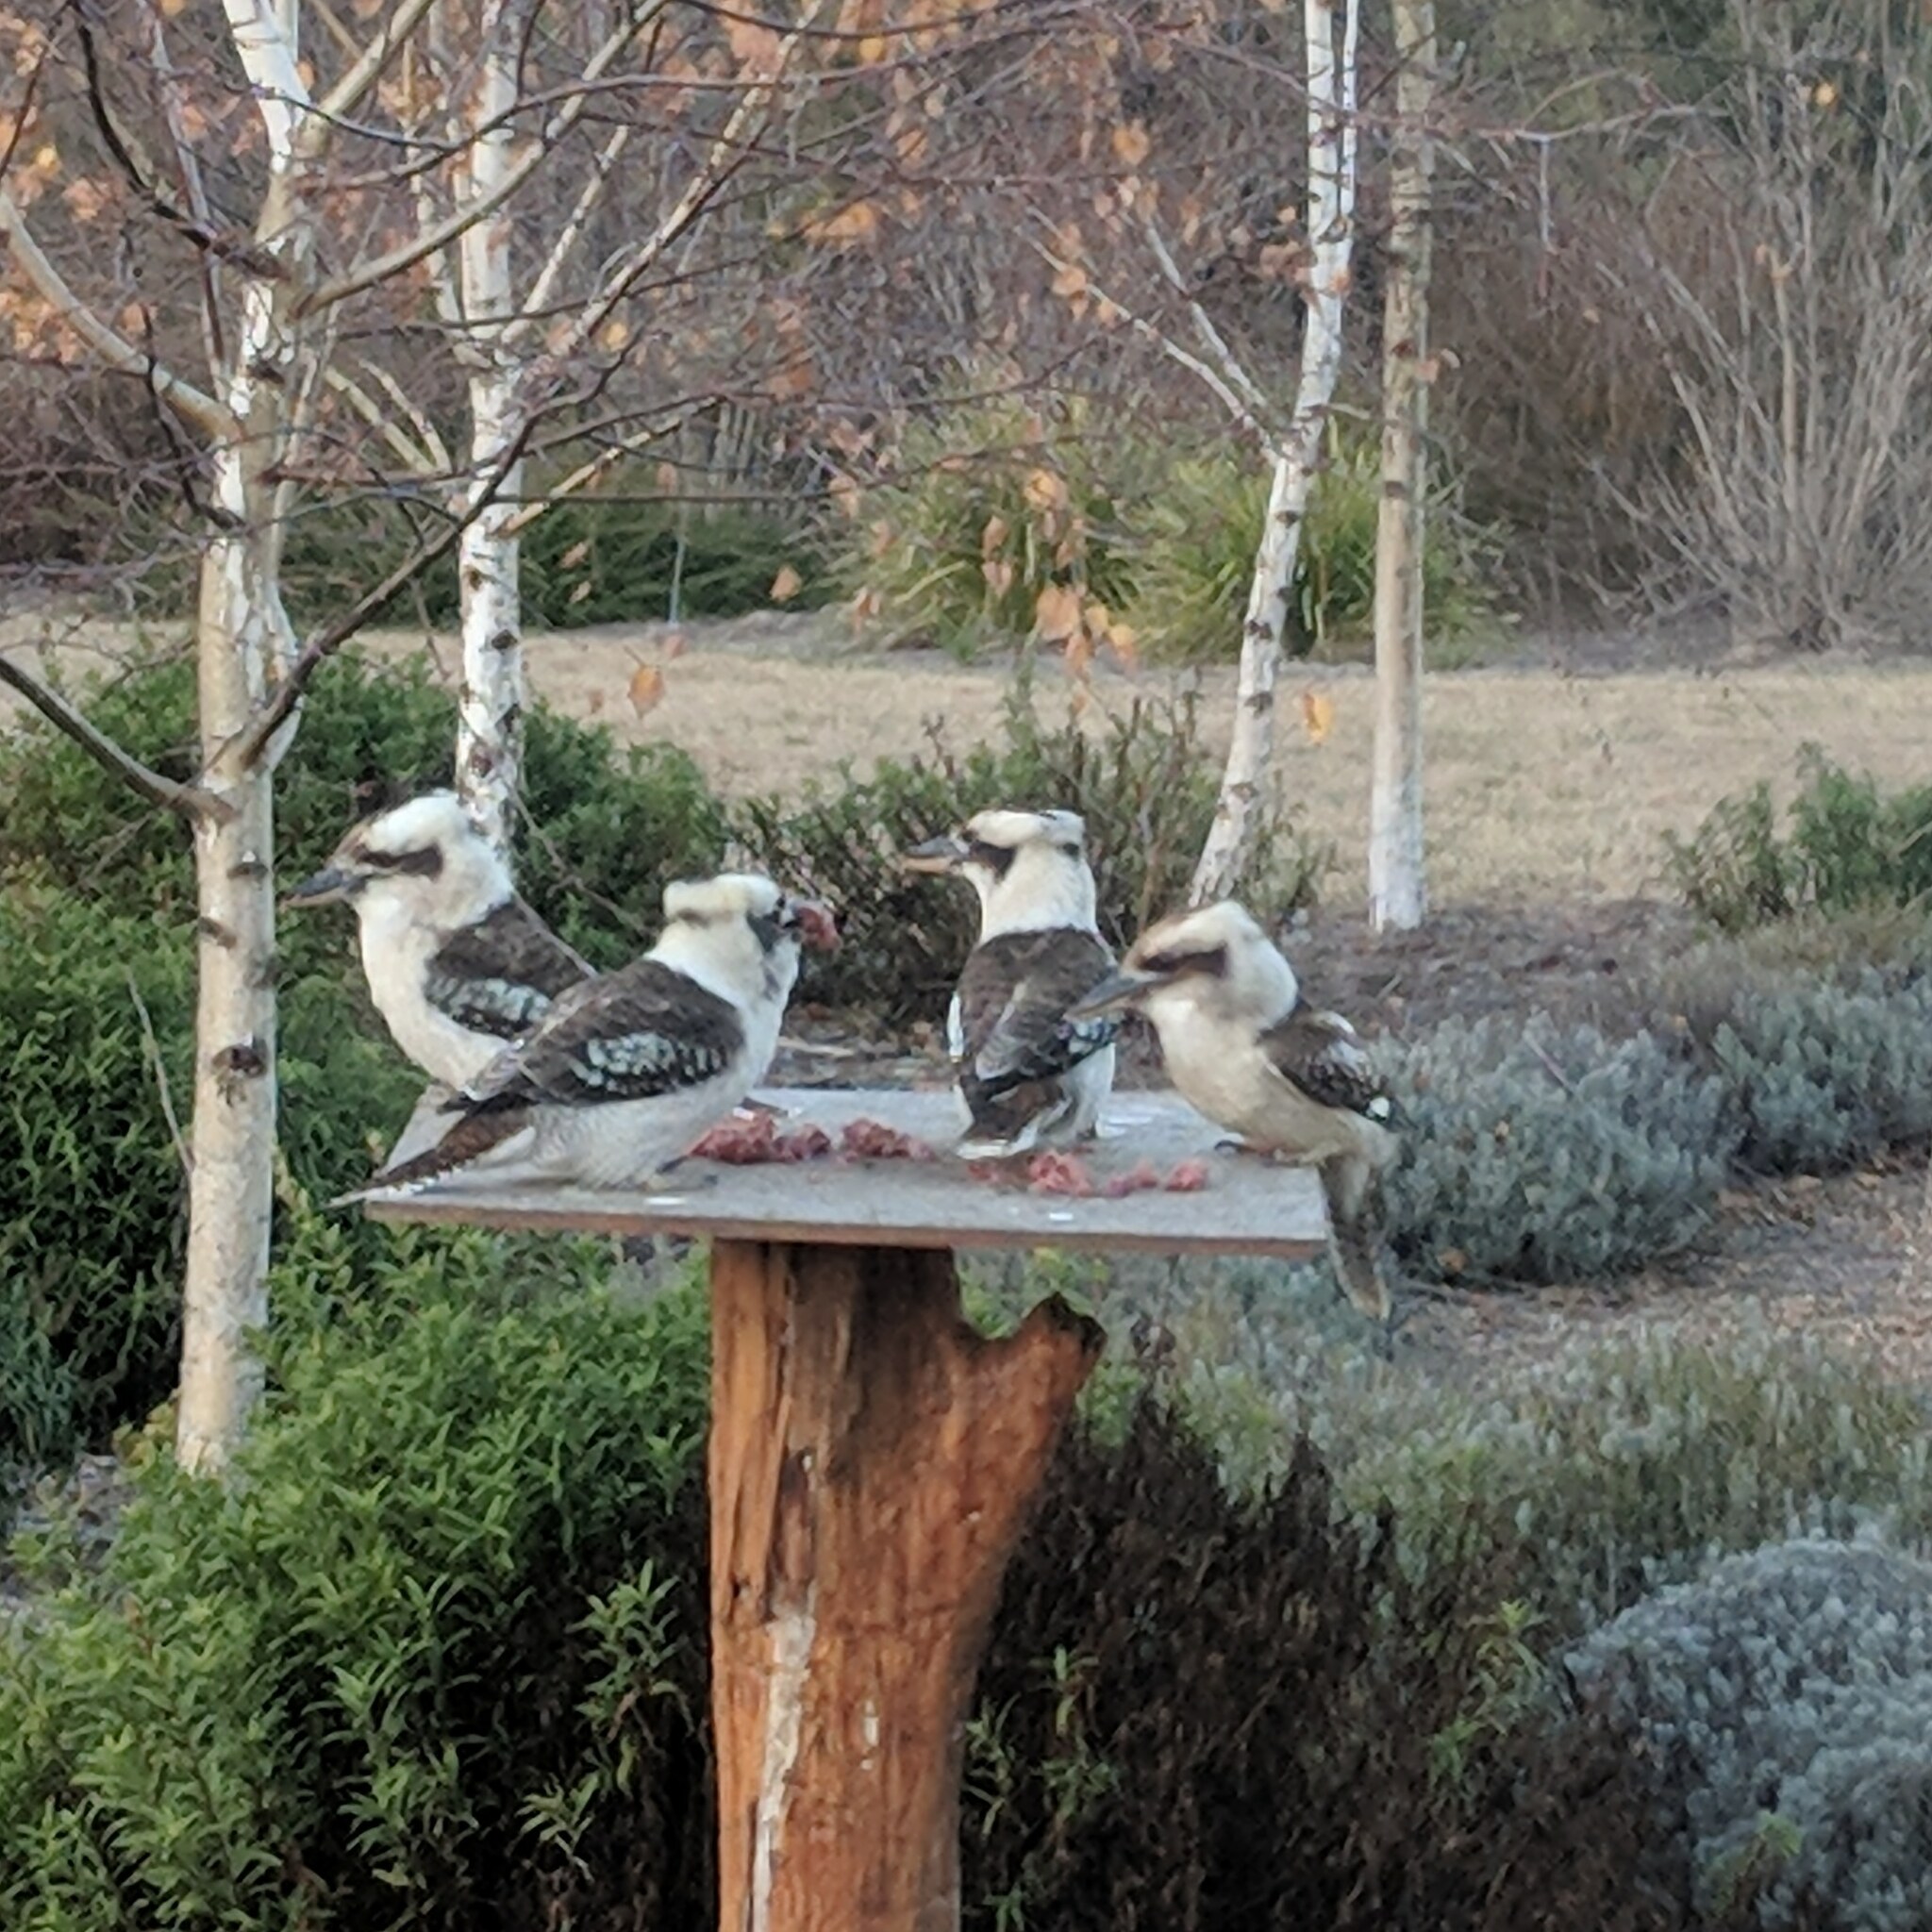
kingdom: Animalia
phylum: Chordata
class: Aves
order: Coraciiformes
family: Alcedinidae
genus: Dacelo
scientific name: Dacelo novaeguineae
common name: Laughing kookaburra
